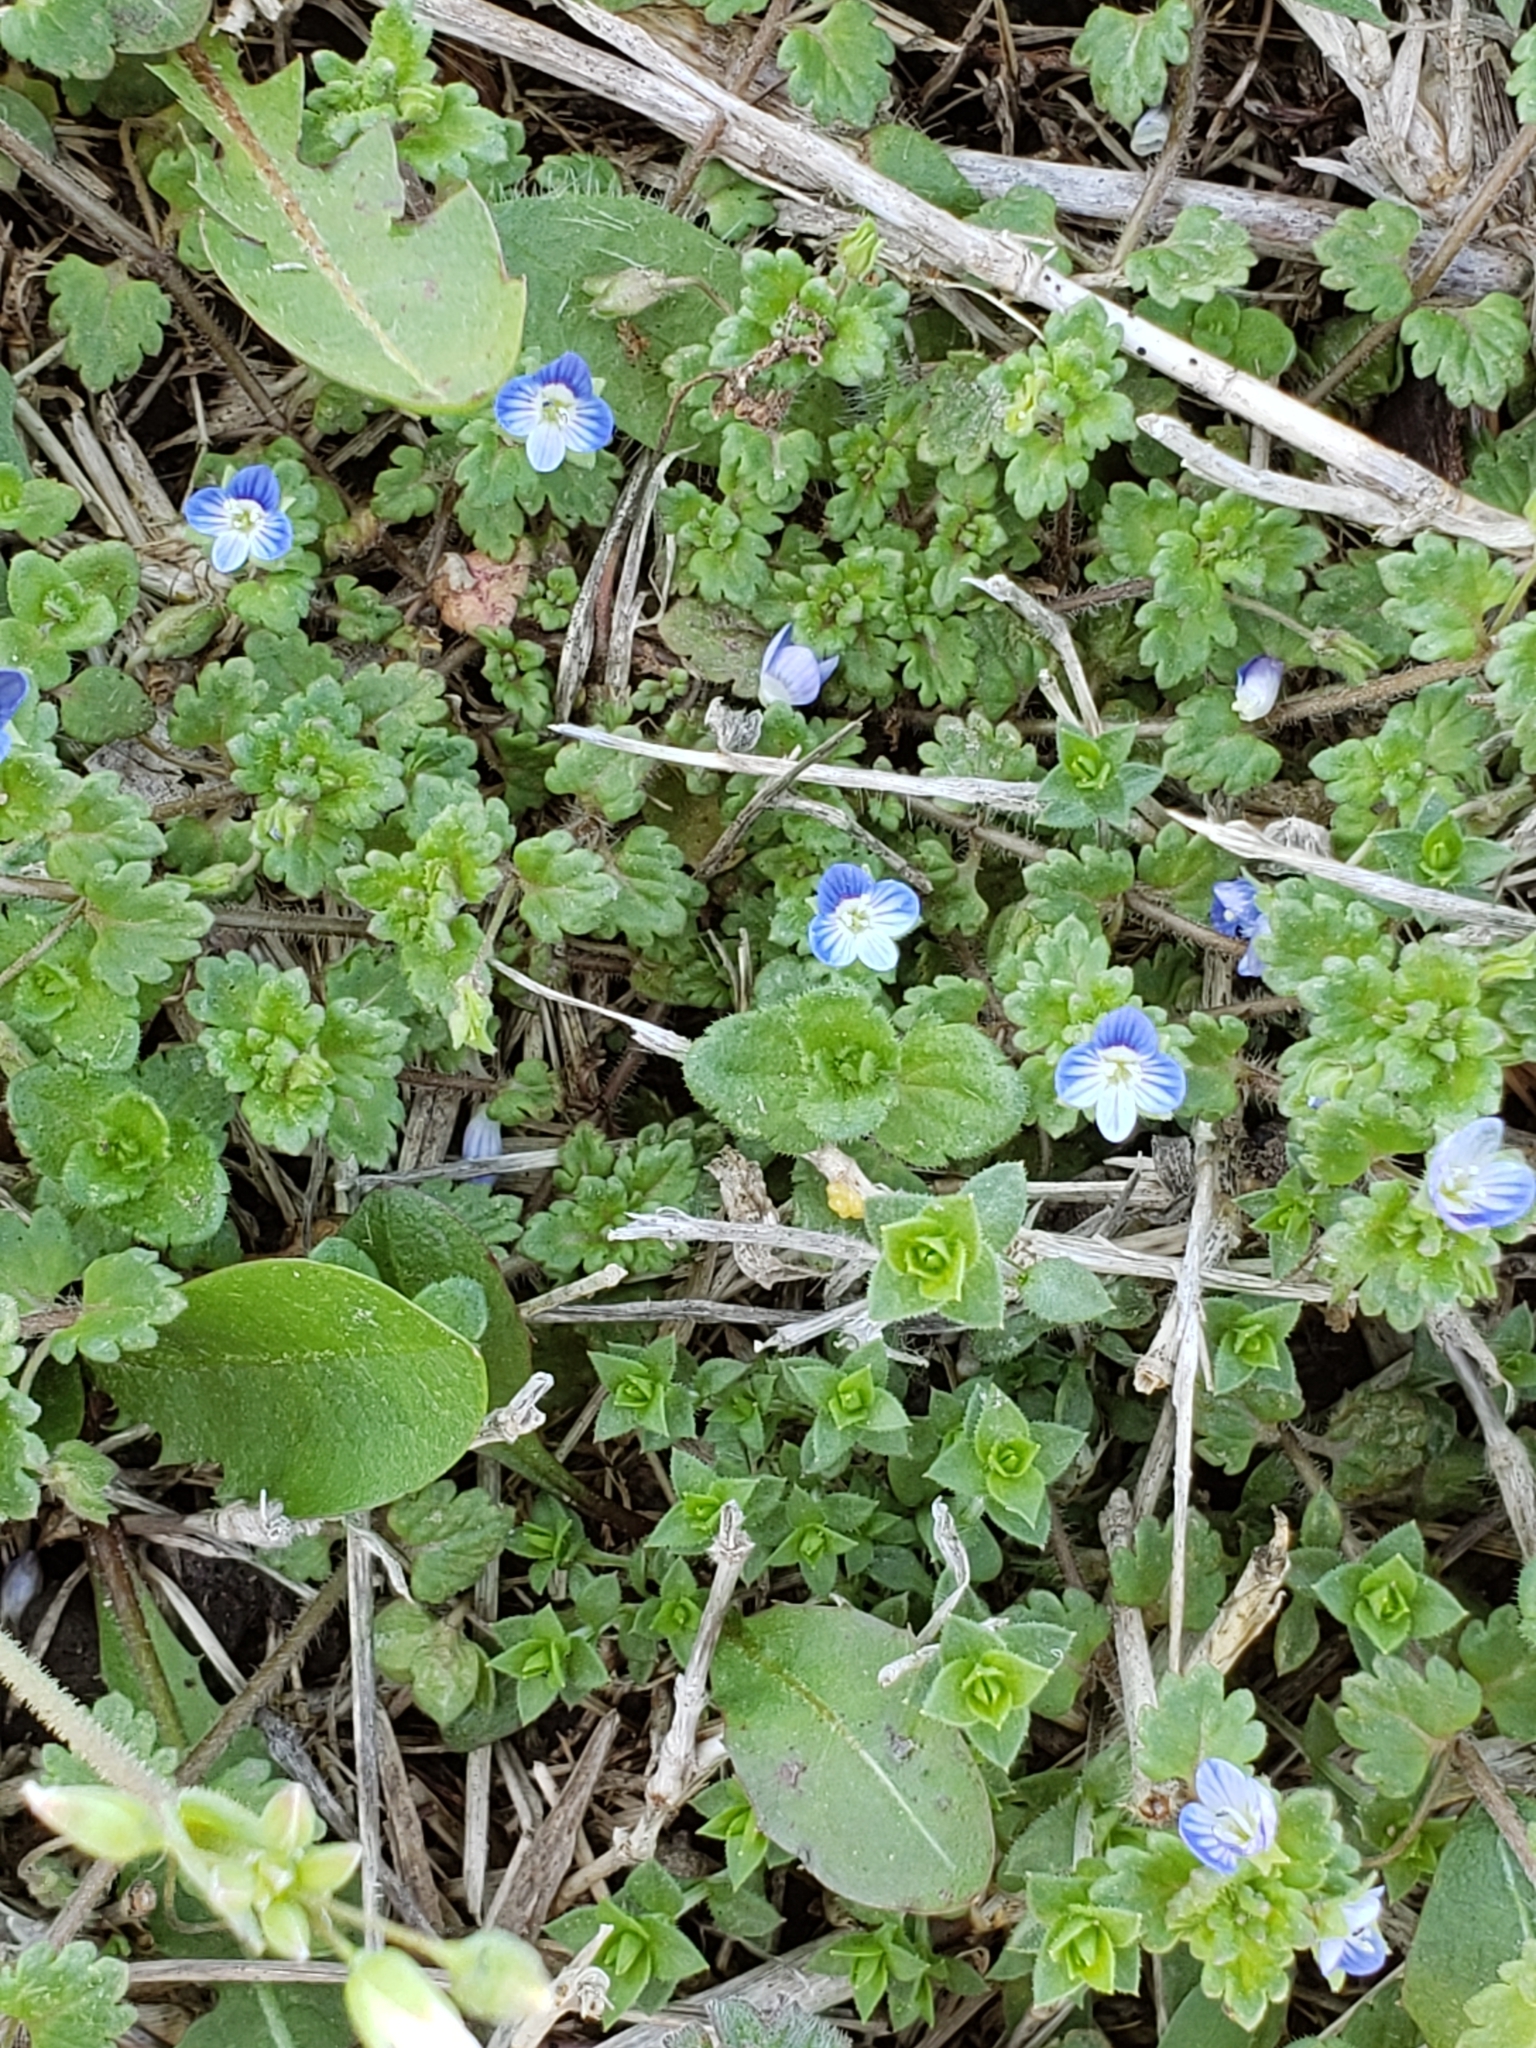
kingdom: Plantae
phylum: Tracheophyta
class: Magnoliopsida
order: Lamiales
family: Plantaginaceae
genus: Veronica
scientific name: Veronica polita
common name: Grey field-speedwell
